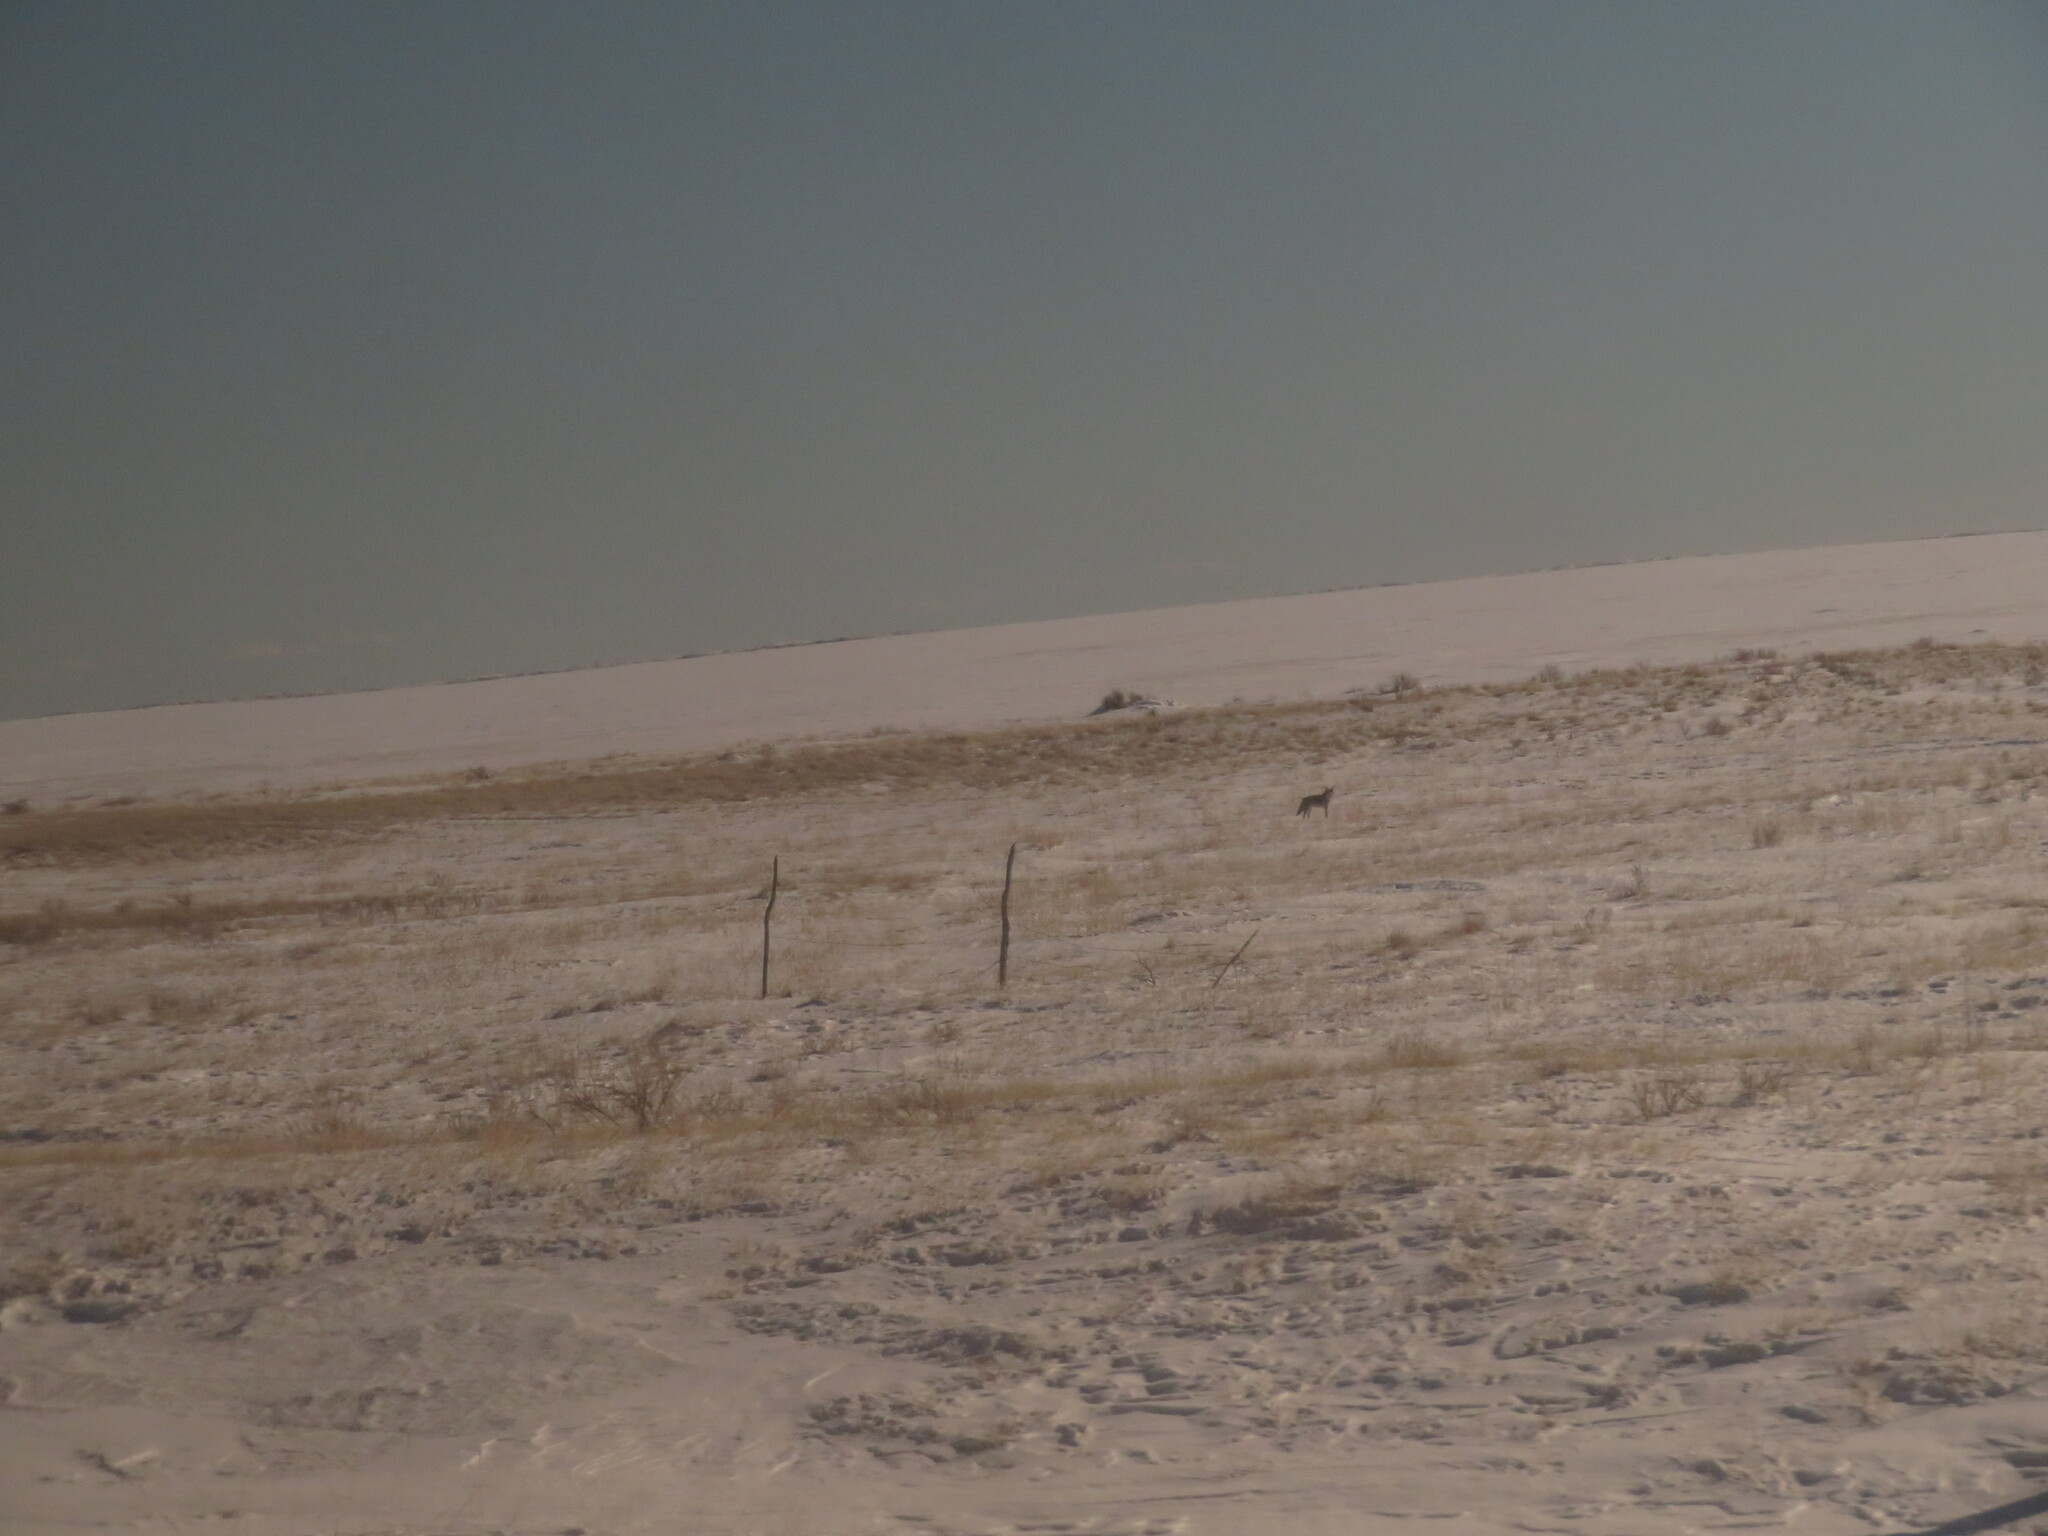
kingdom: Animalia
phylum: Chordata
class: Mammalia
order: Carnivora
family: Canidae
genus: Canis
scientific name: Canis latrans
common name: Coyote
